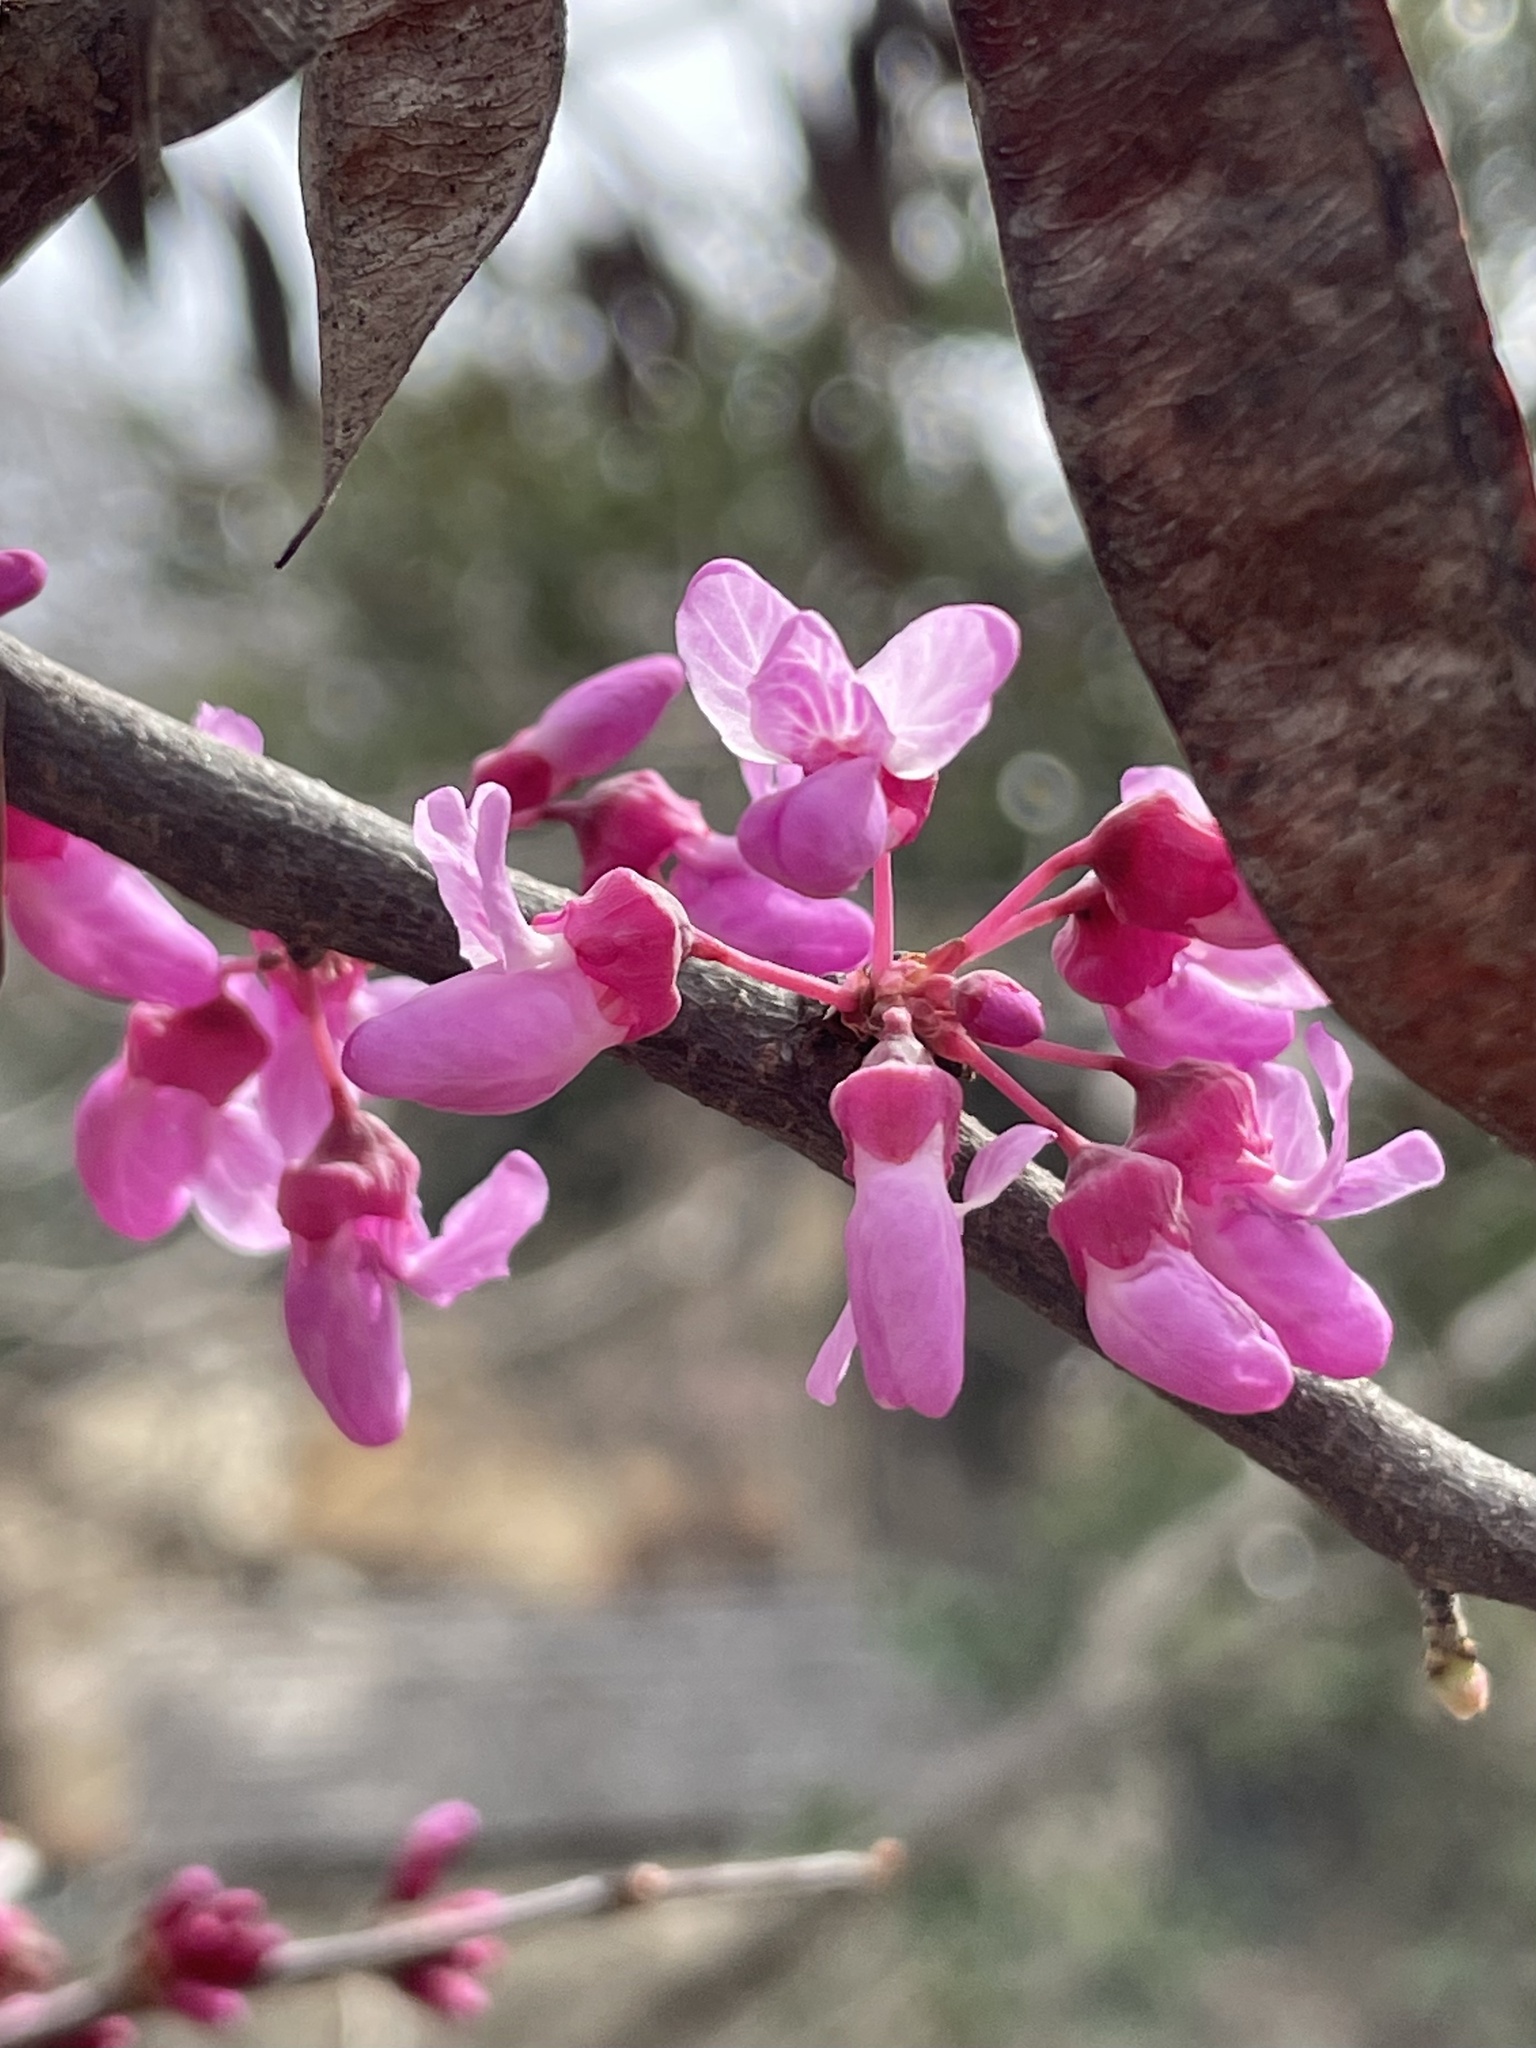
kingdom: Plantae
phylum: Tracheophyta
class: Magnoliopsida
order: Fabales
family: Fabaceae
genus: Cercis
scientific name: Cercis canadensis
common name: Eastern redbud
